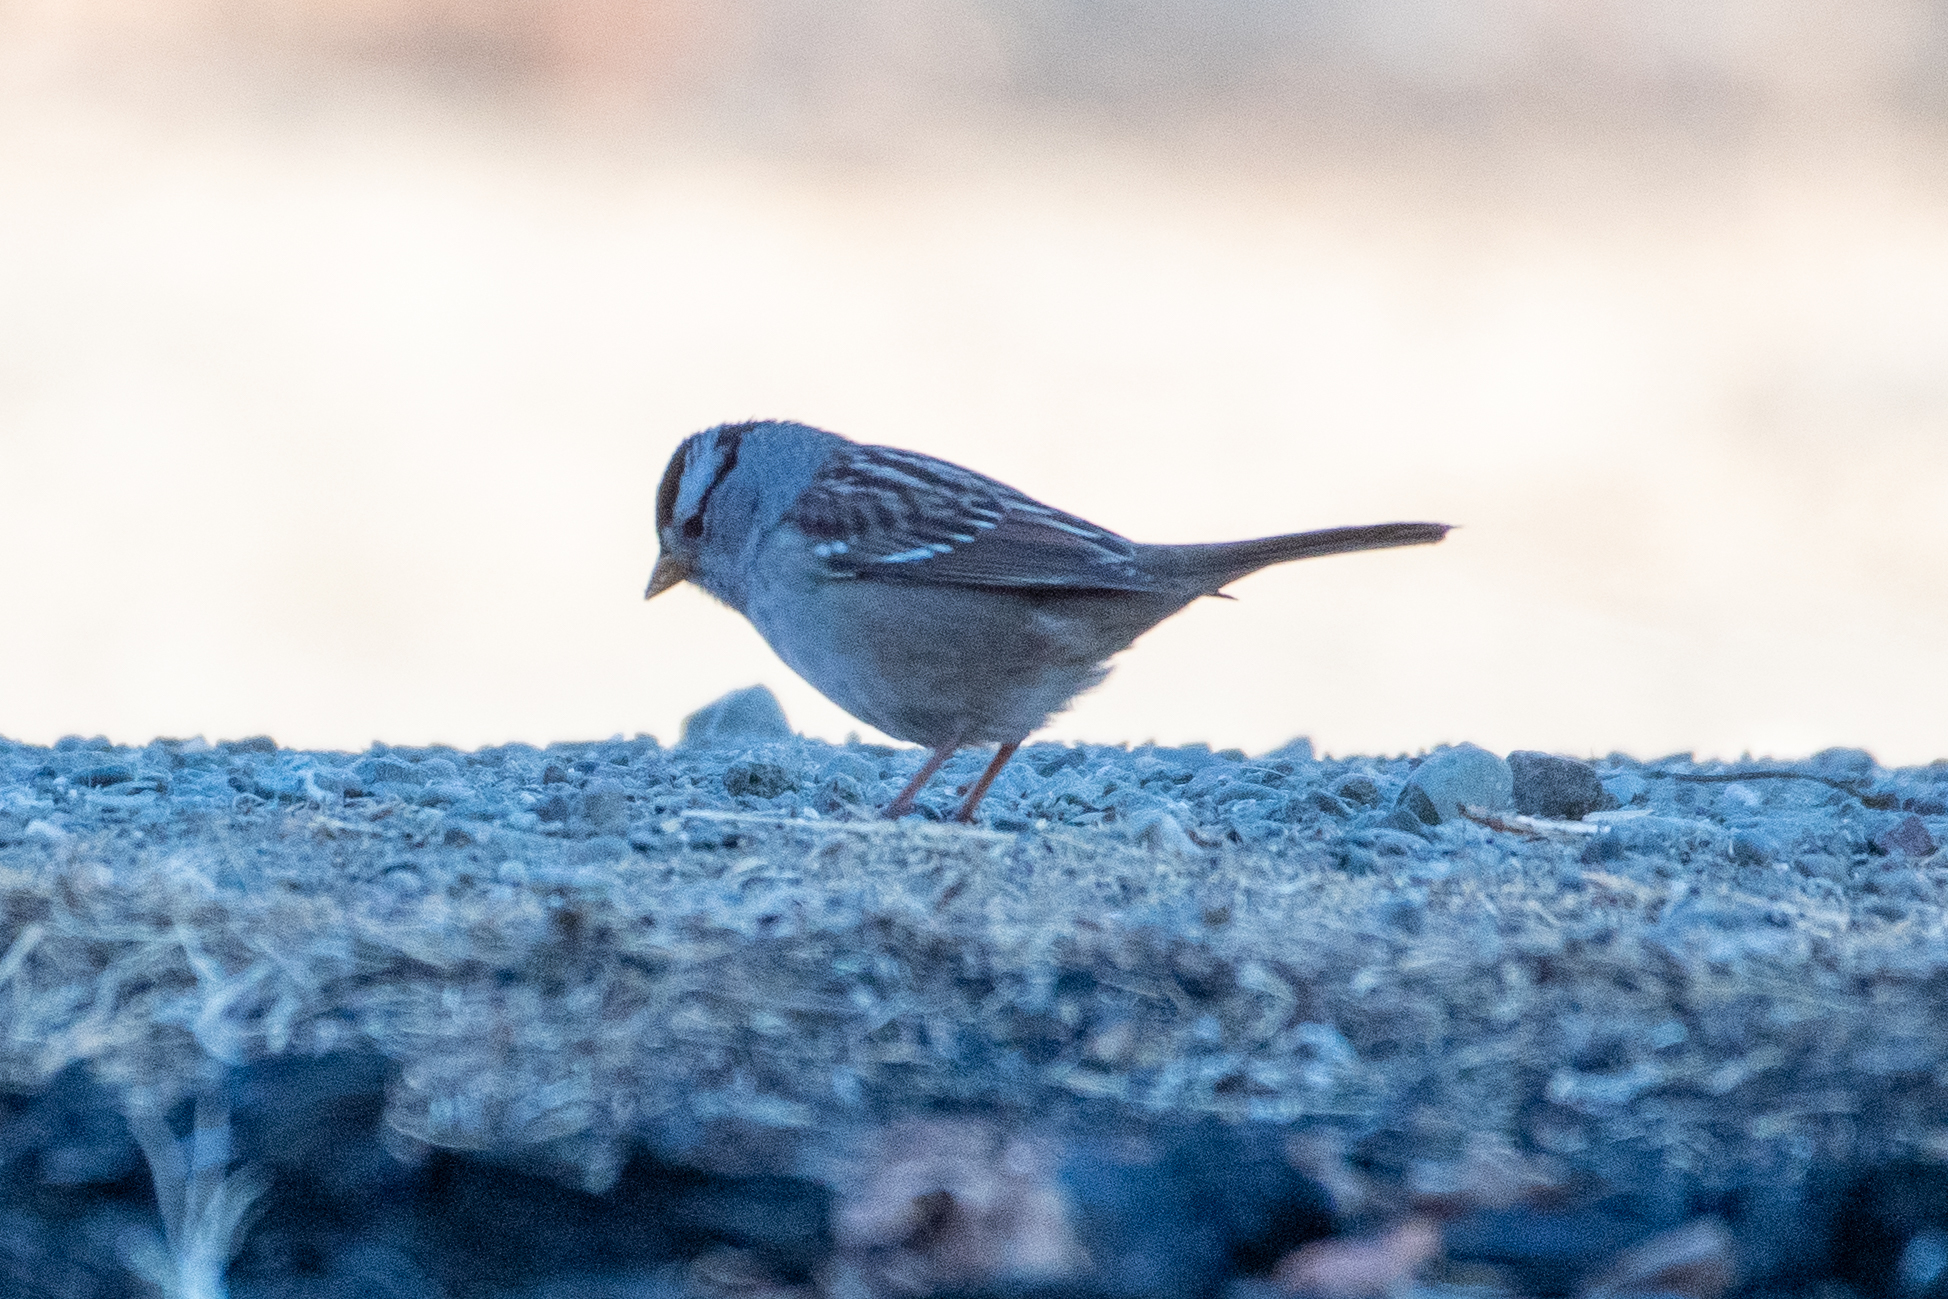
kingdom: Animalia
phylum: Chordata
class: Aves
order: Passeriformes
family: Passerellidae
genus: Zonotrichia
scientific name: Zonotrichia leucophrys
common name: White-crowned sparrow
